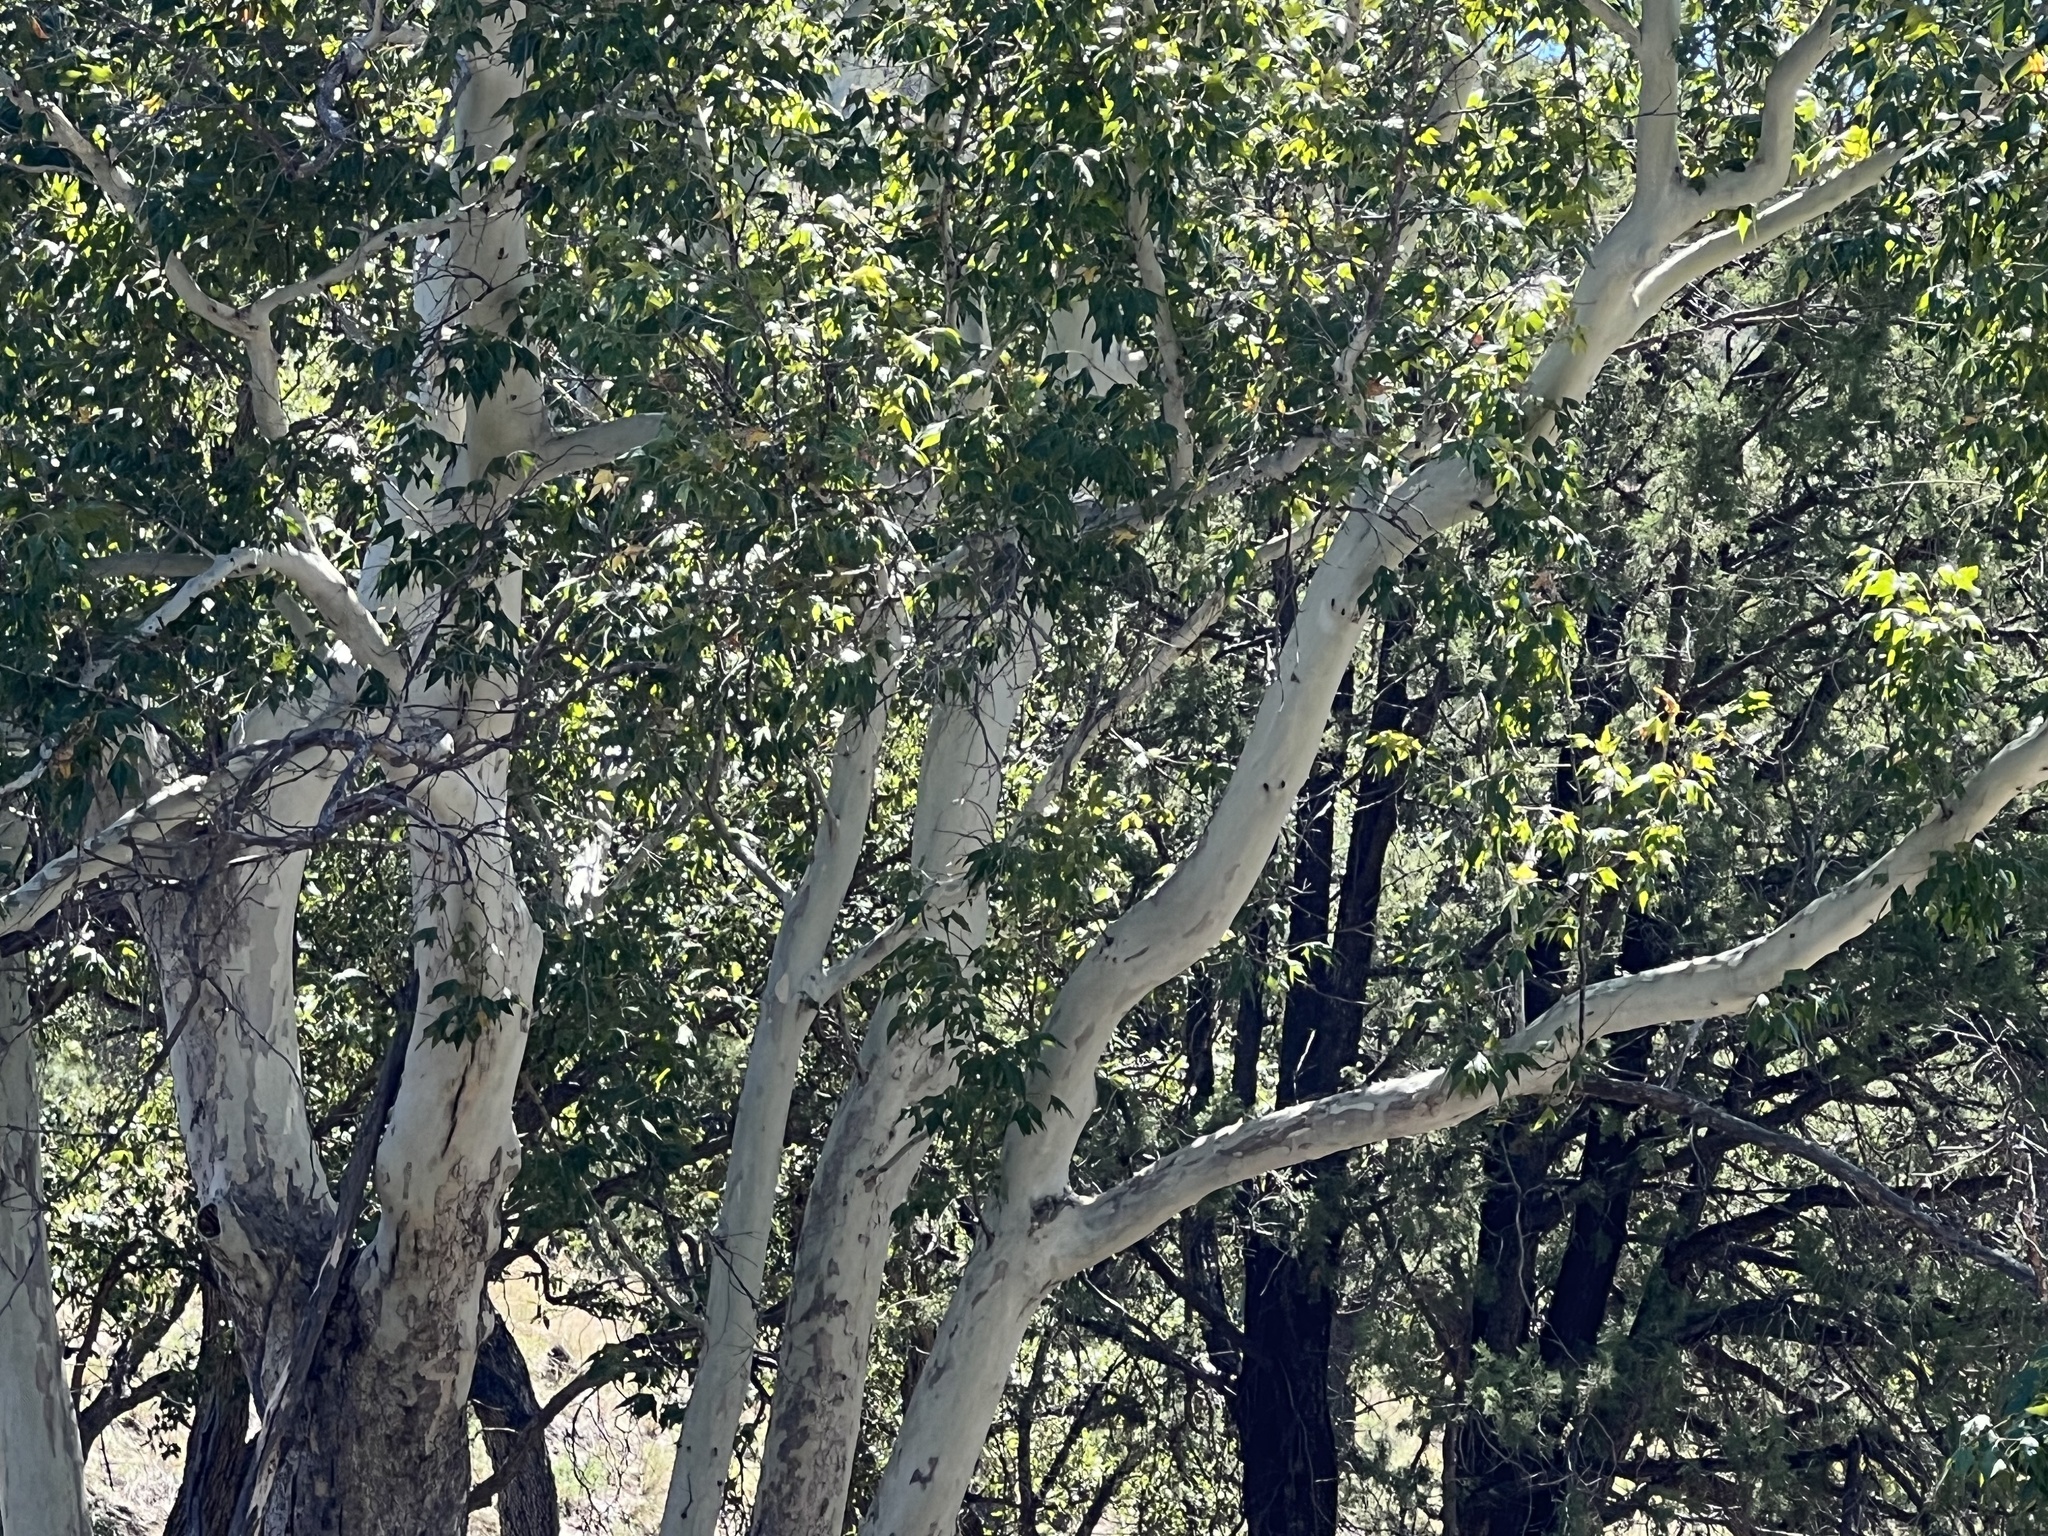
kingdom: Plantae
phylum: Tracheophyta
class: Magnoliopsida
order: Proteales
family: Platanaceae
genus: Platanus
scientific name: Platanus wrightii
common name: Arizona sycamore
